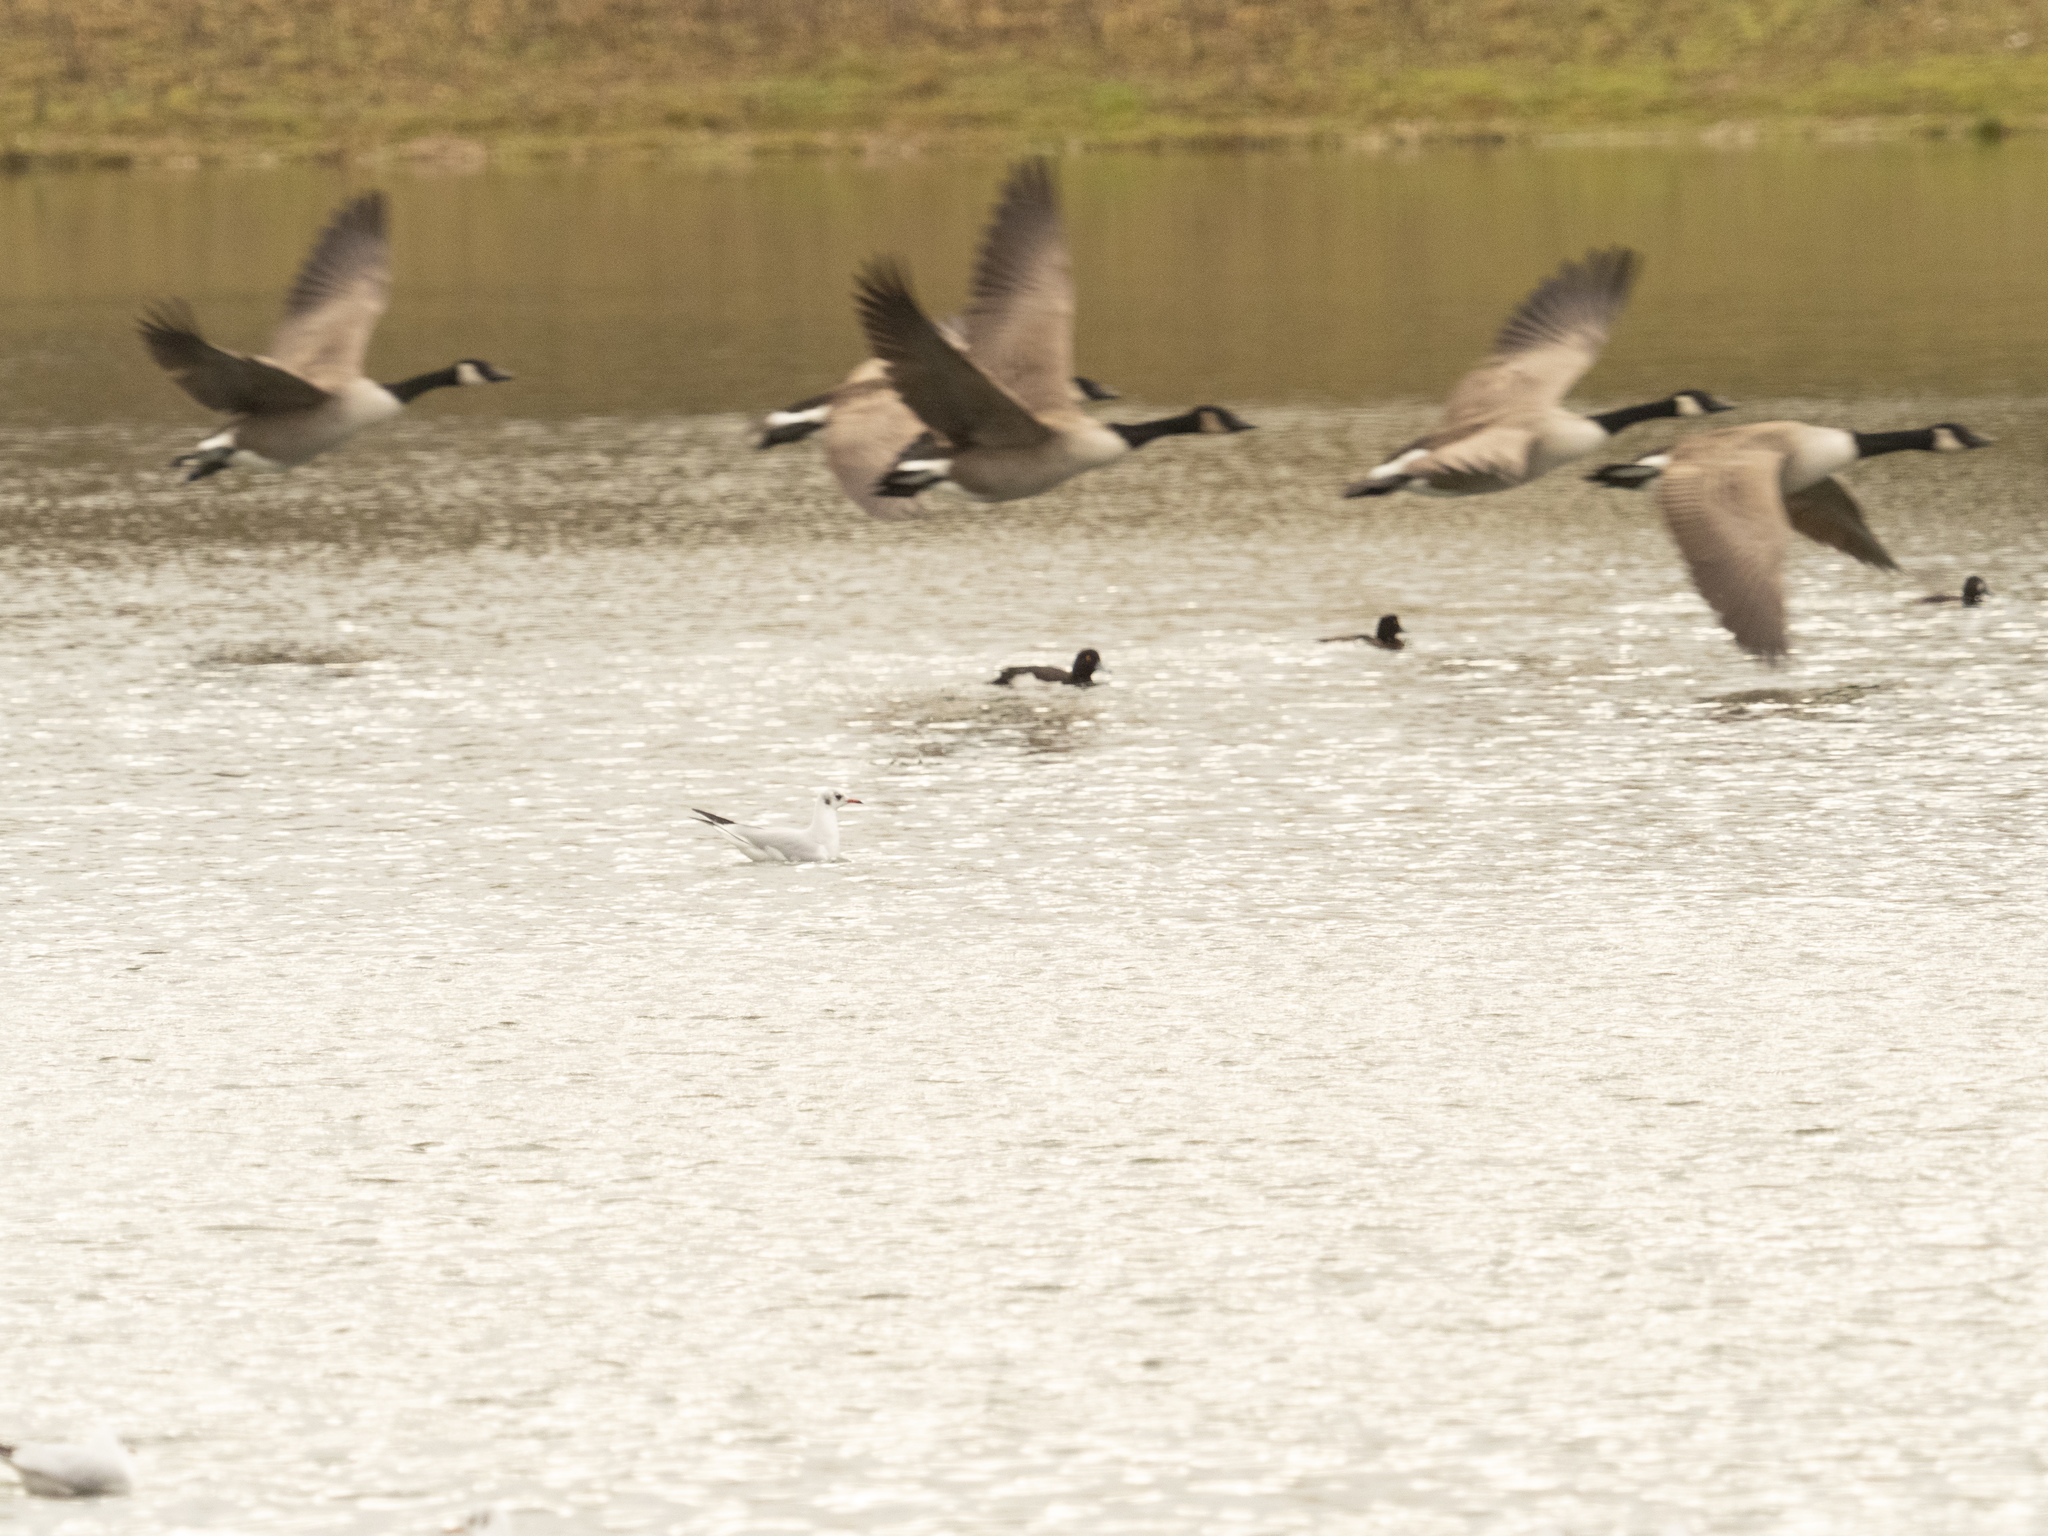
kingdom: Animalia
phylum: Chordata
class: Aves
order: Anseriformes
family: Anatidae
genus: Branta
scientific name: Branta canadensis
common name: Canada goose
